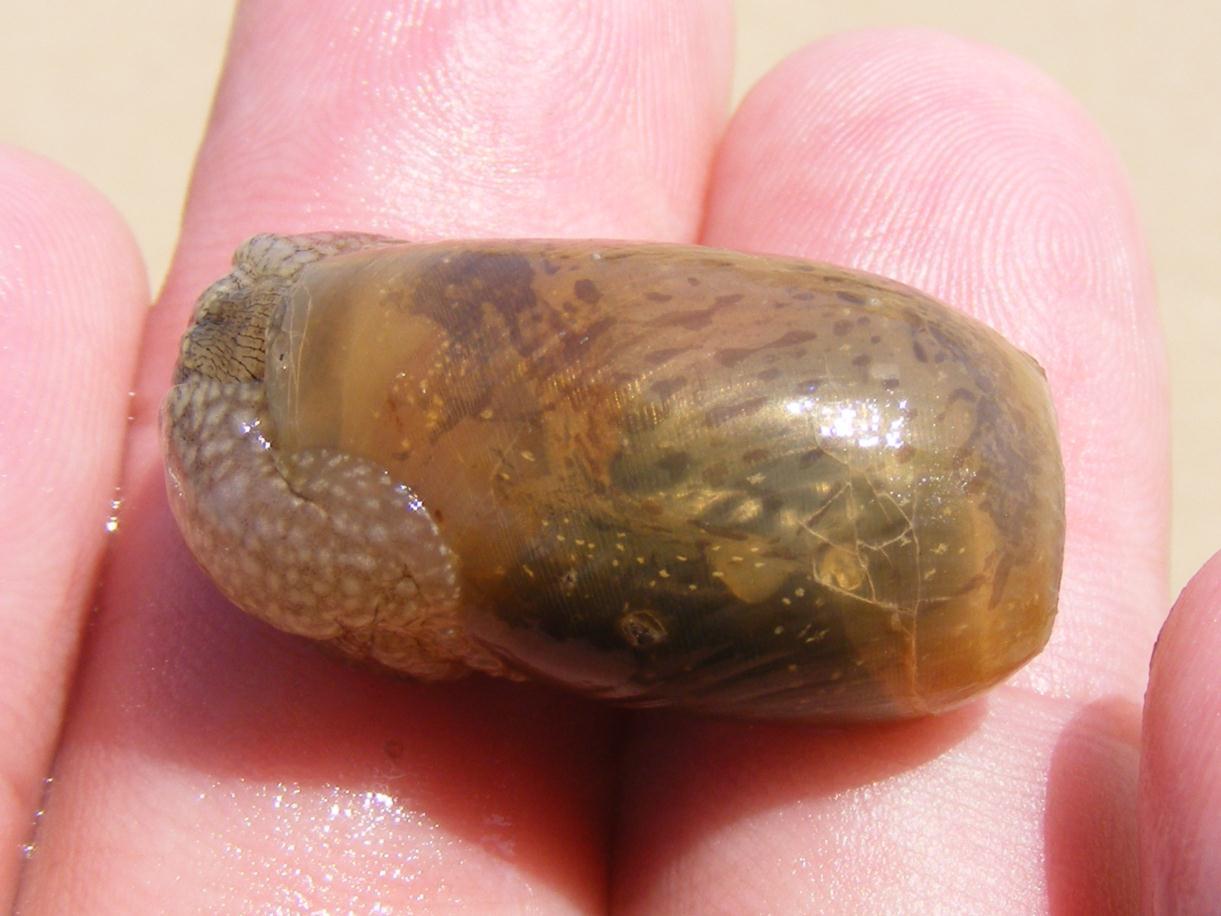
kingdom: Animalia
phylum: Mollusca
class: Gastropoda
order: Aplysiida
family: Akeridae
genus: Akera
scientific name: Akera soluta
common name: Papery bubble snail
